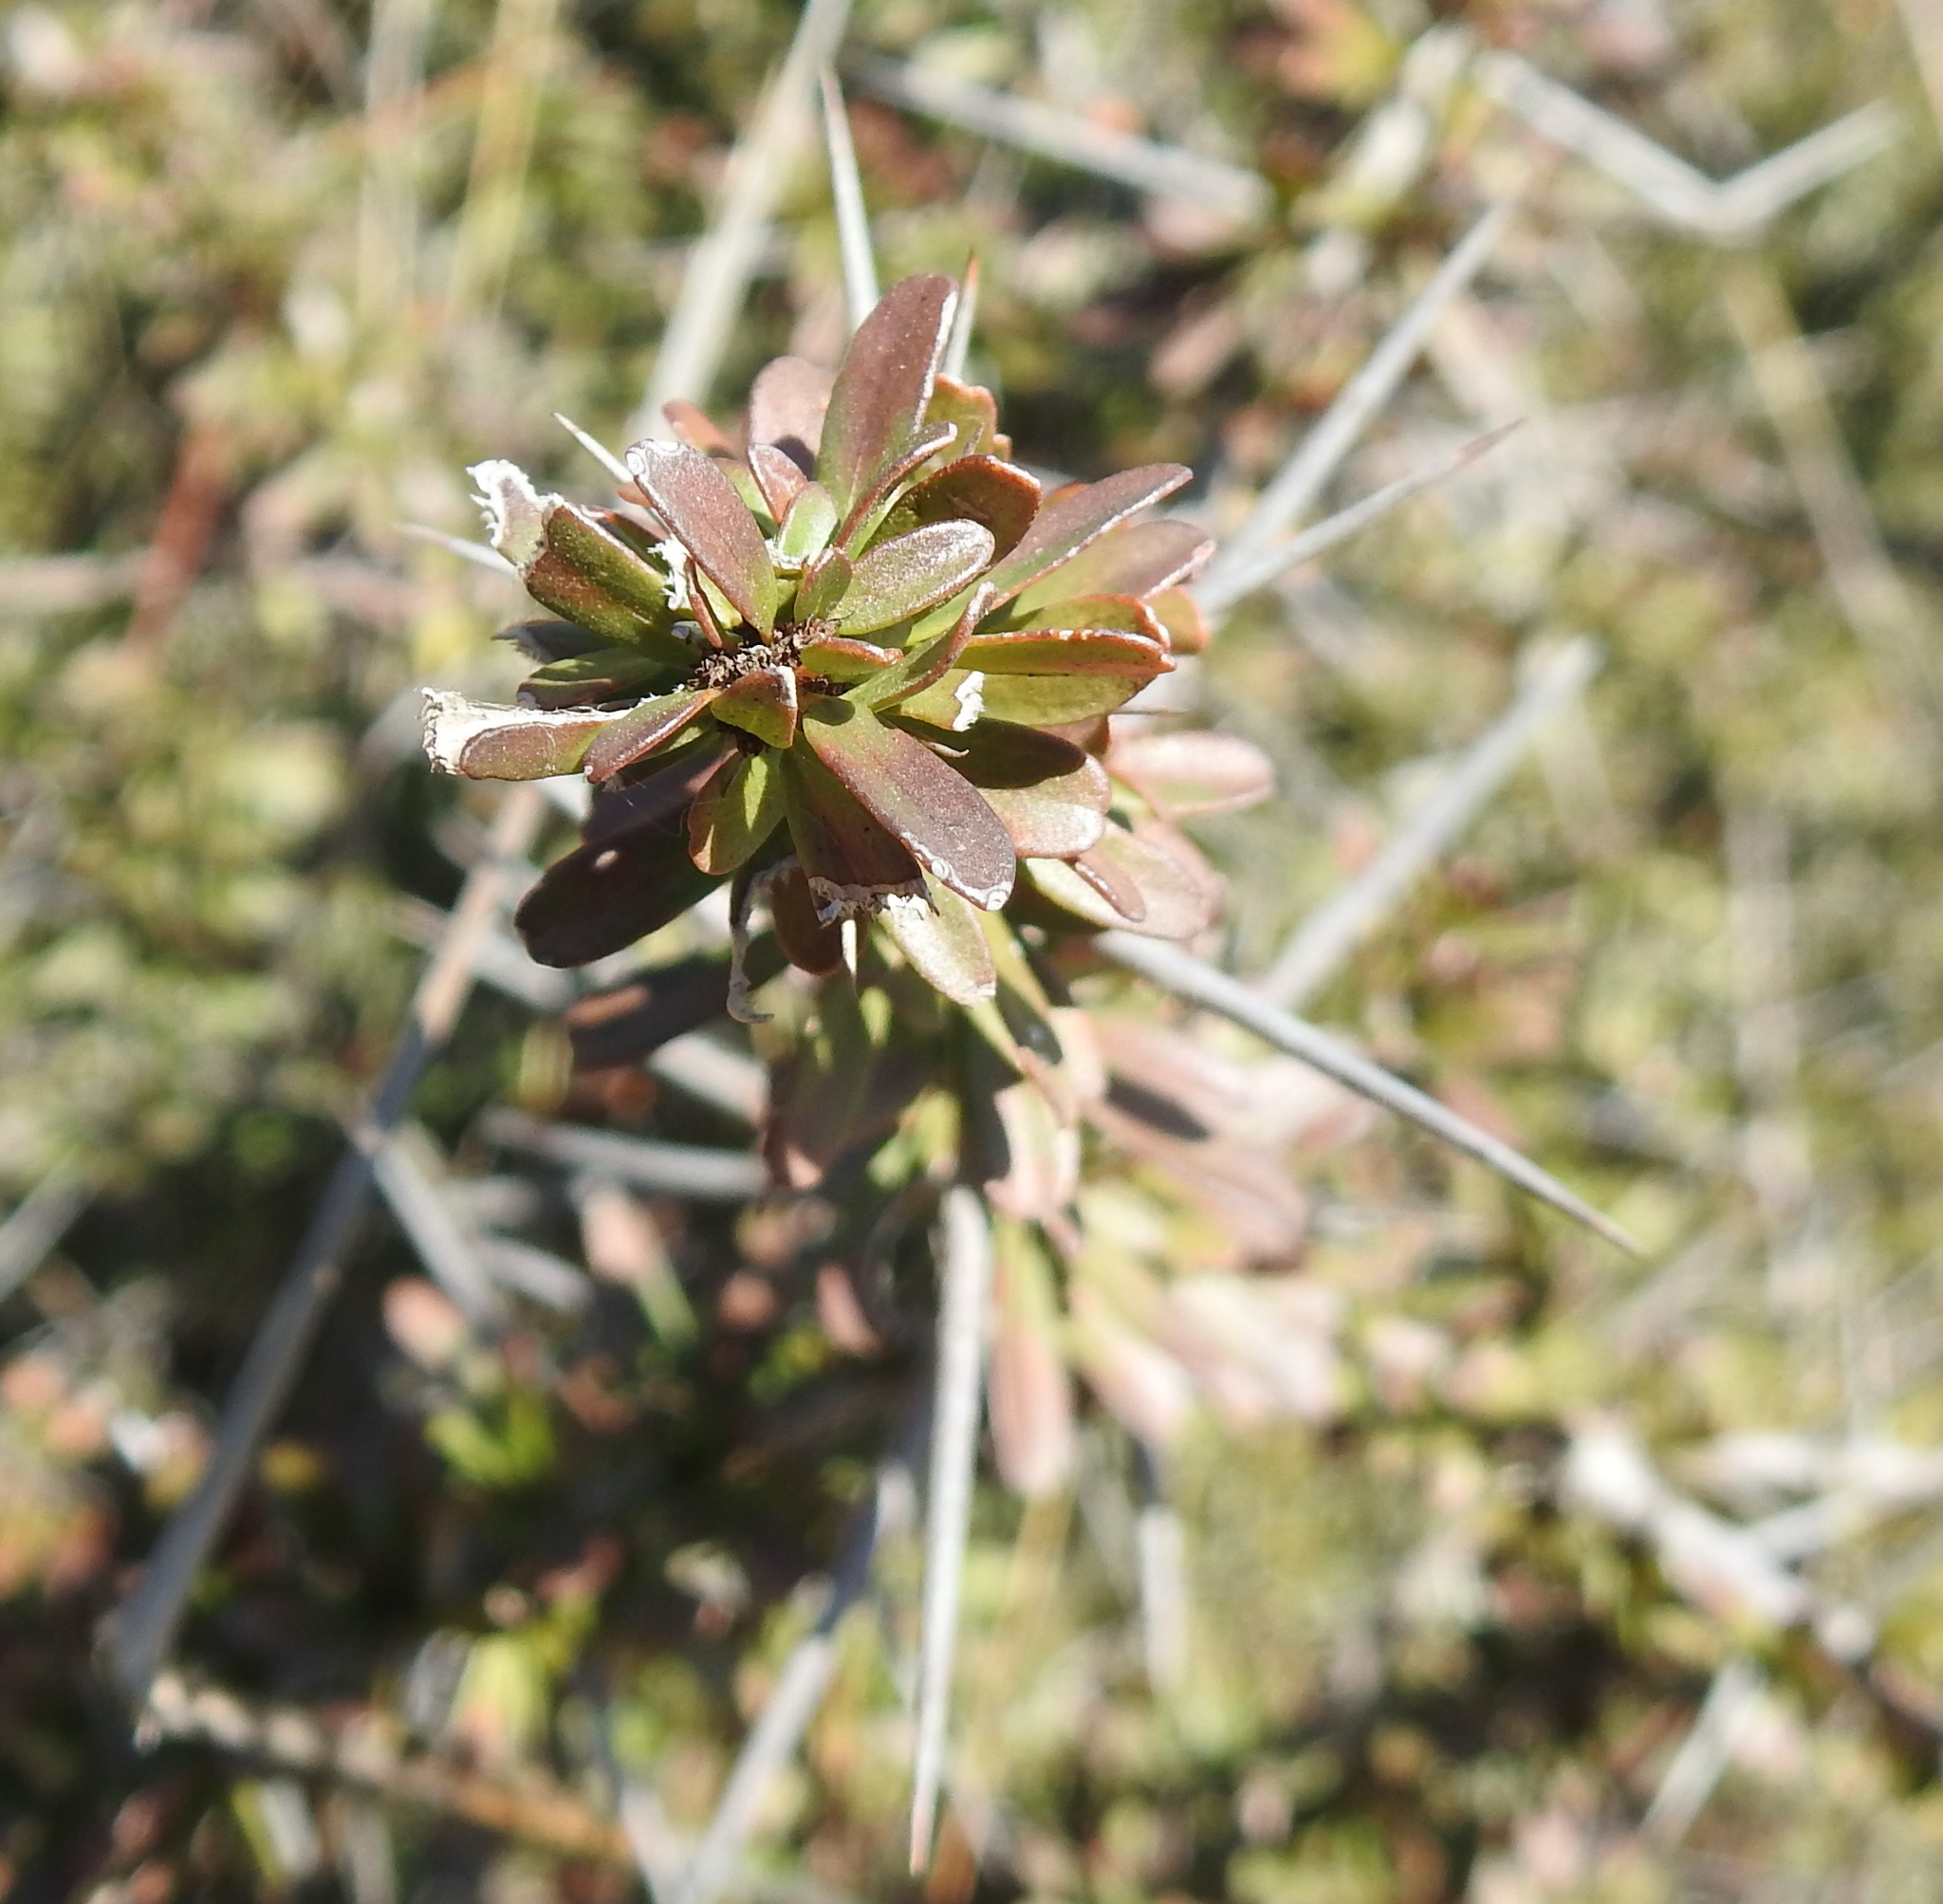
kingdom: Plantae
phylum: Tracheophyta
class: Magnoliopsida
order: Celastrales
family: Celastraceae
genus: Gymnosporia
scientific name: Gymnosporia polyacantha
